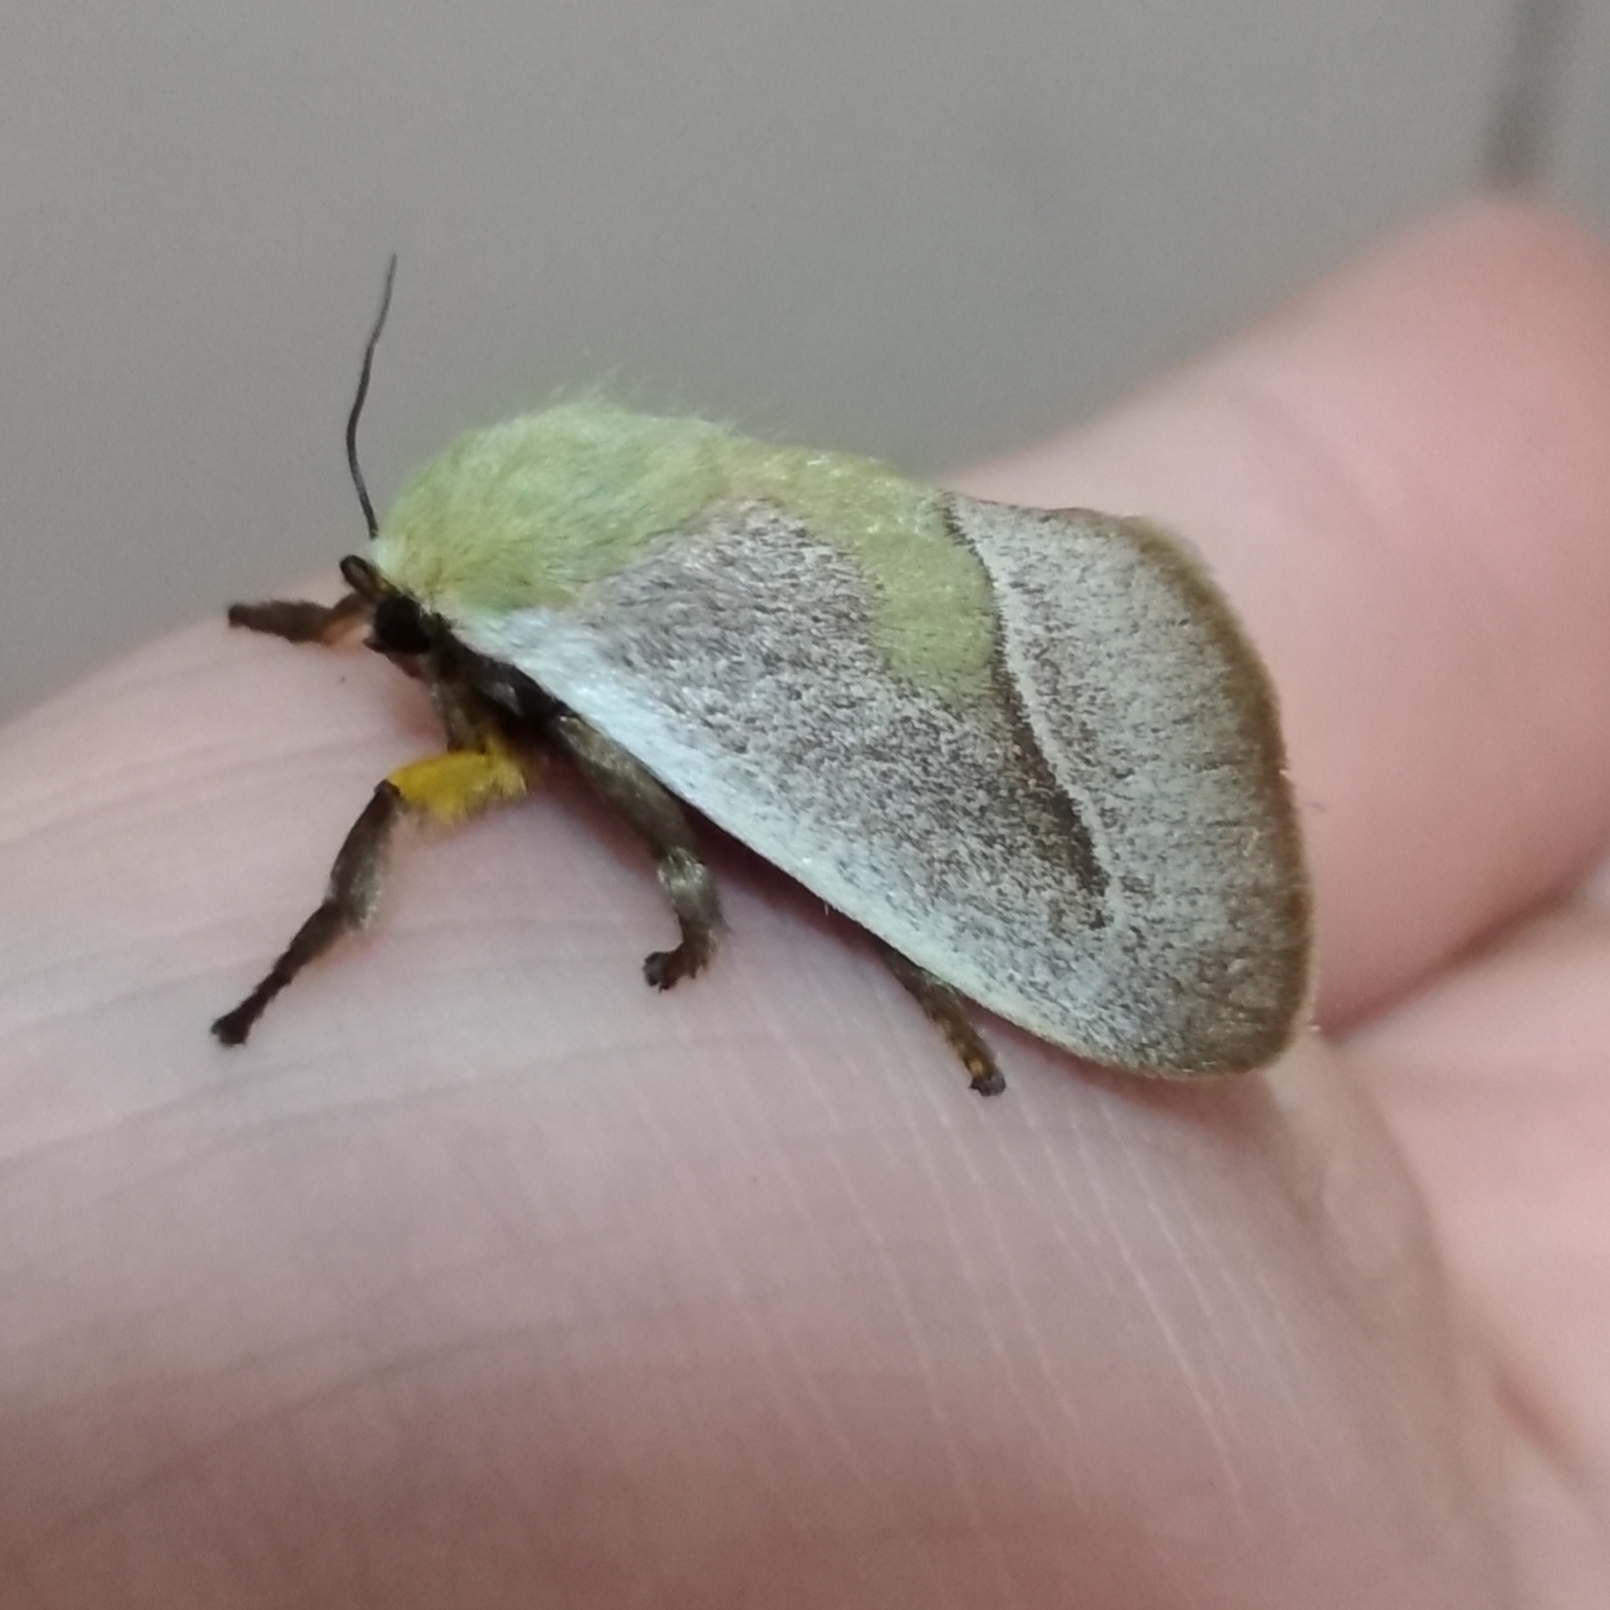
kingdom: Animalia
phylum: Arthropoda
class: Insecta
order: Lepidoptera
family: Limacodidae
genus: Latoia
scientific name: Latoia intermissa
